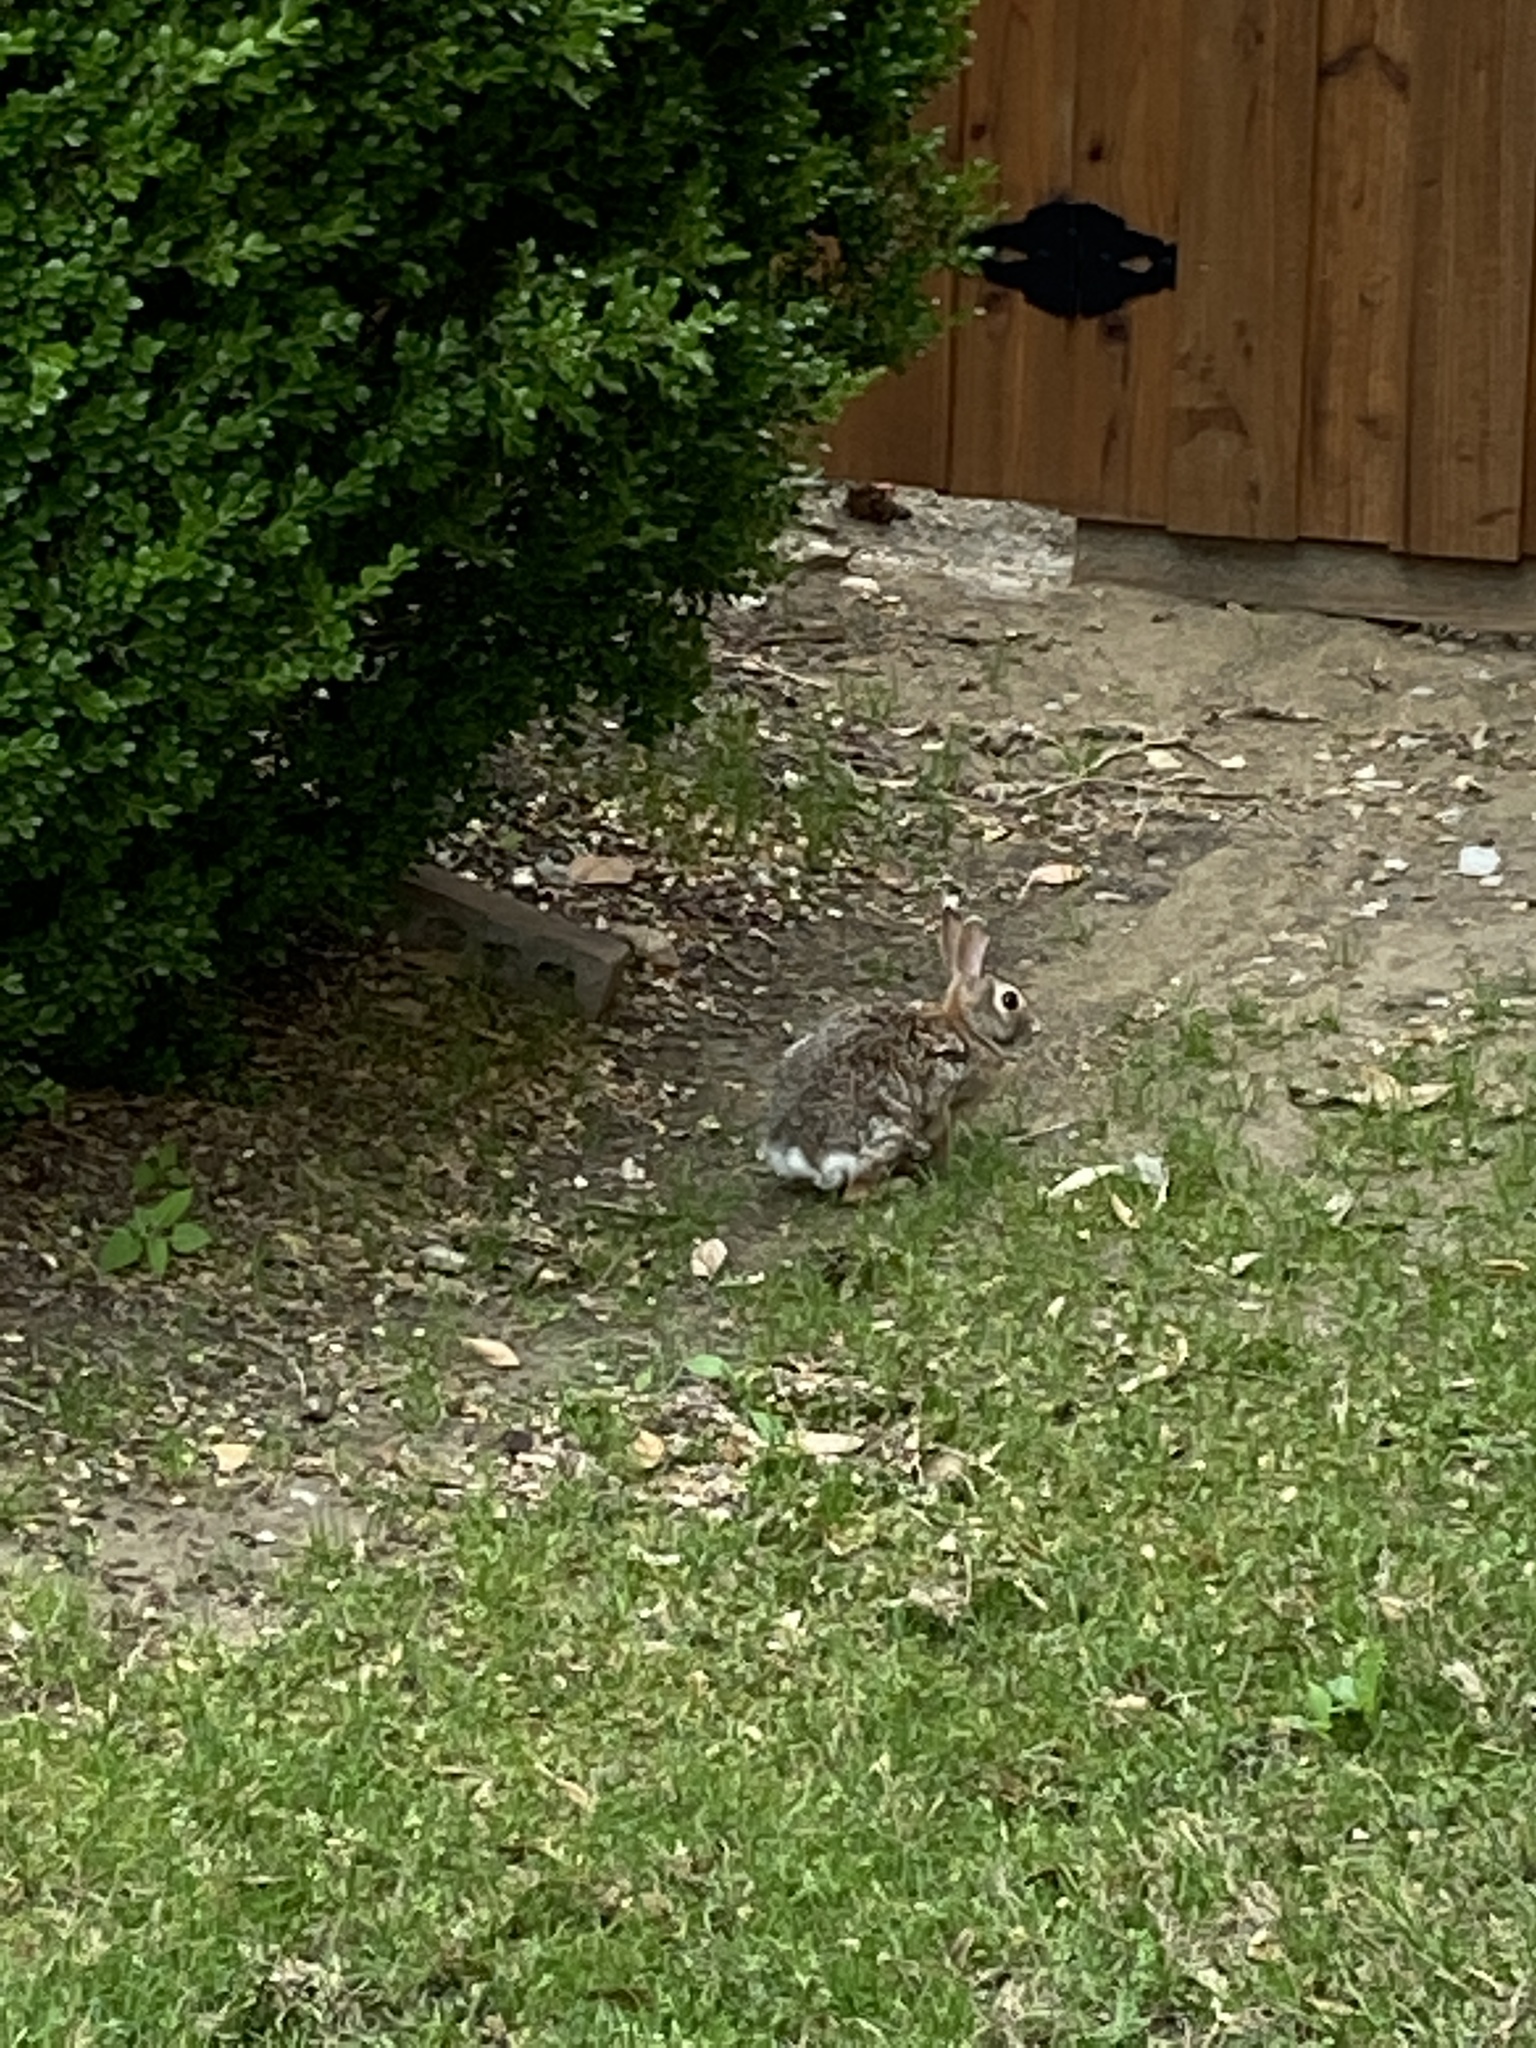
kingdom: Animalia
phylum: Chordata
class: Mammalia
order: Lagomorpha
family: Leporidae
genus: Sylvilagus
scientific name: Sylvilagus floridanus
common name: Eastern cottontail
